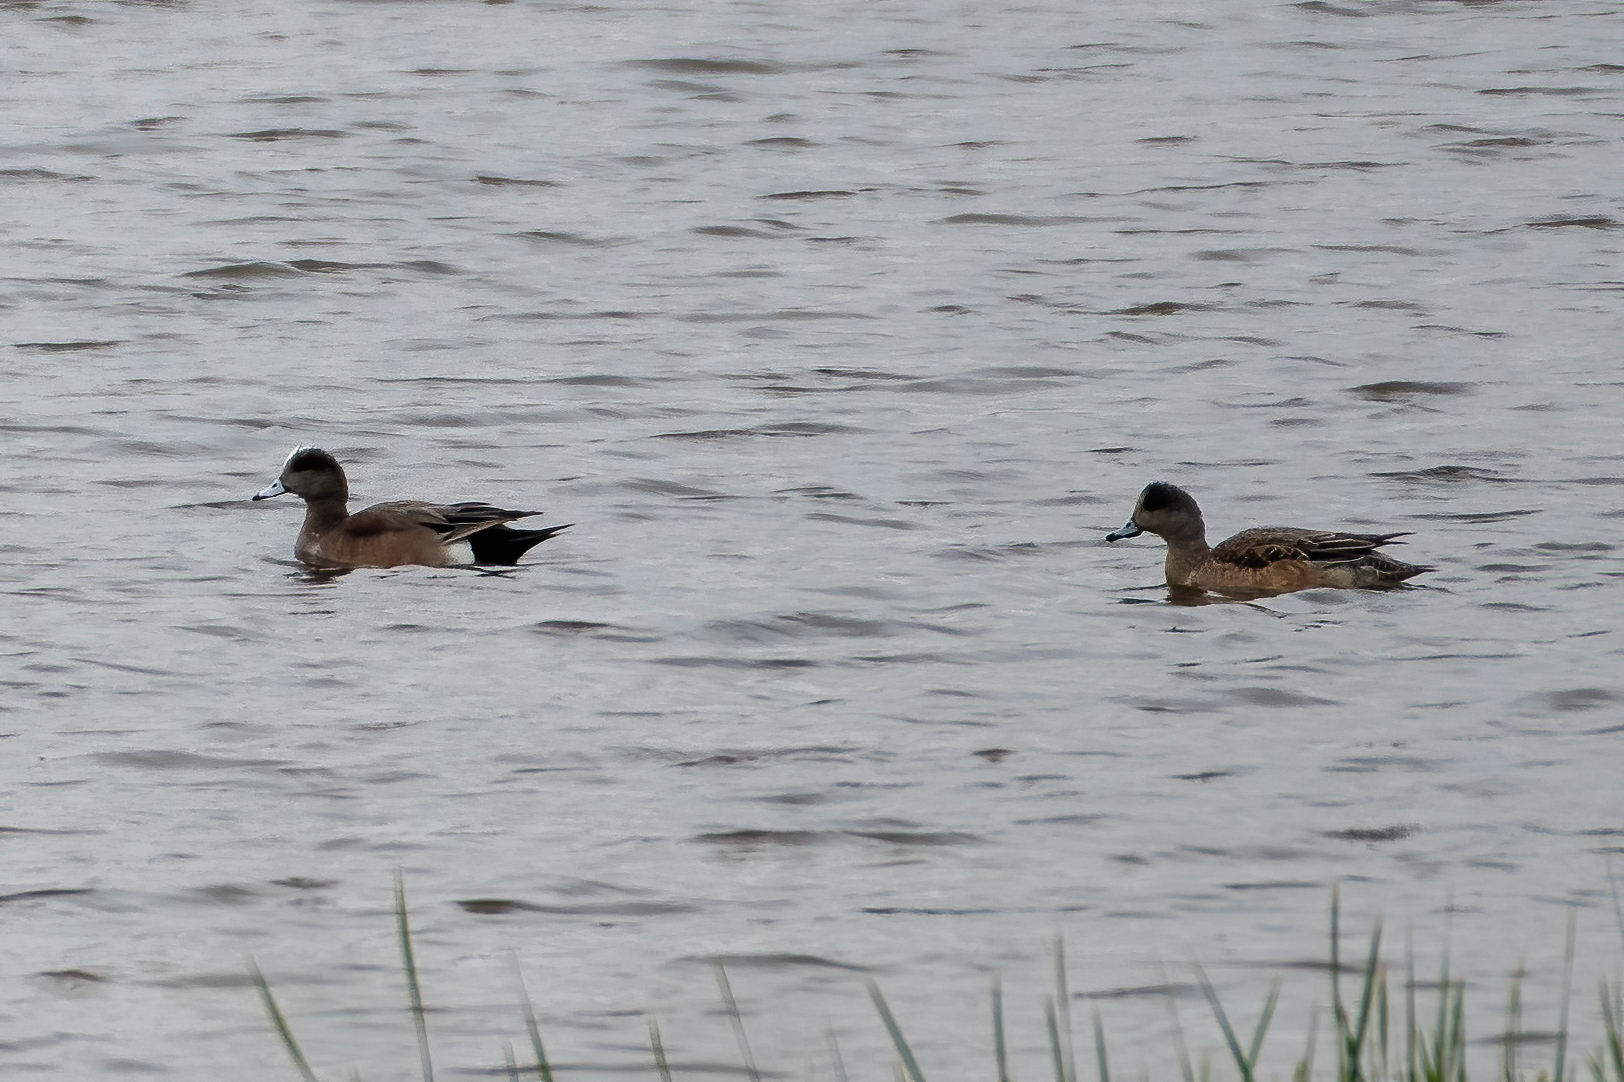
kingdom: Animalia
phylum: Chordata
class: Aves
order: Anseriformes
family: Anatidae
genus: Mareca
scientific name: Mareca americana
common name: American wigeon
